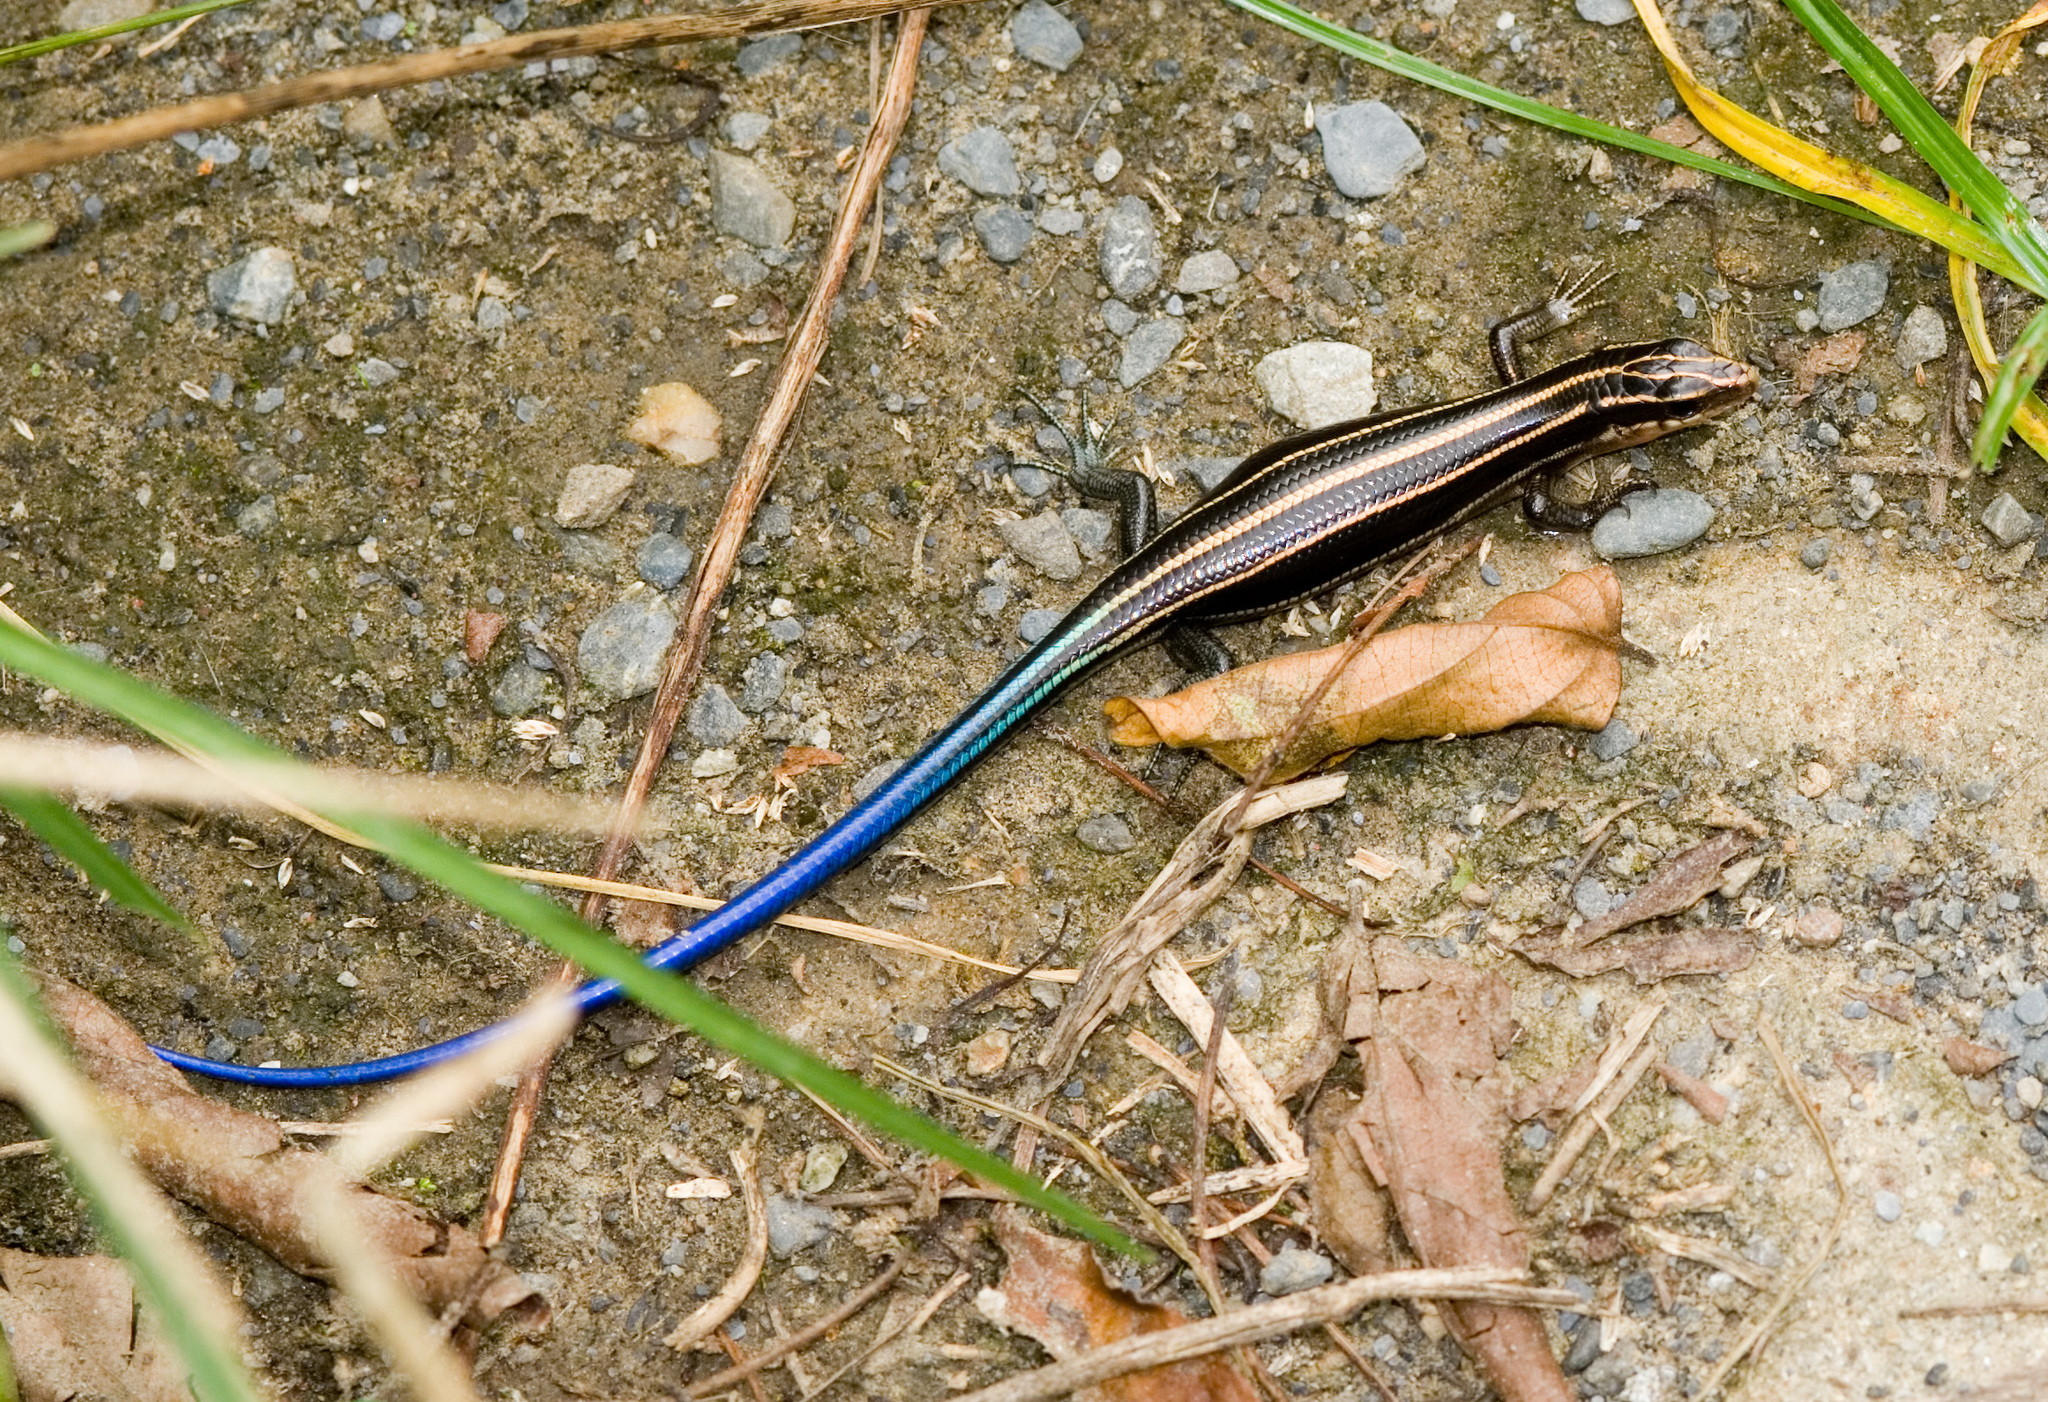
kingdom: Animalia
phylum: Chordata
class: Squamata
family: Scincidae
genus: Plestiodon
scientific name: Plestiodon elegans
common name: Shanghai elegant skink
